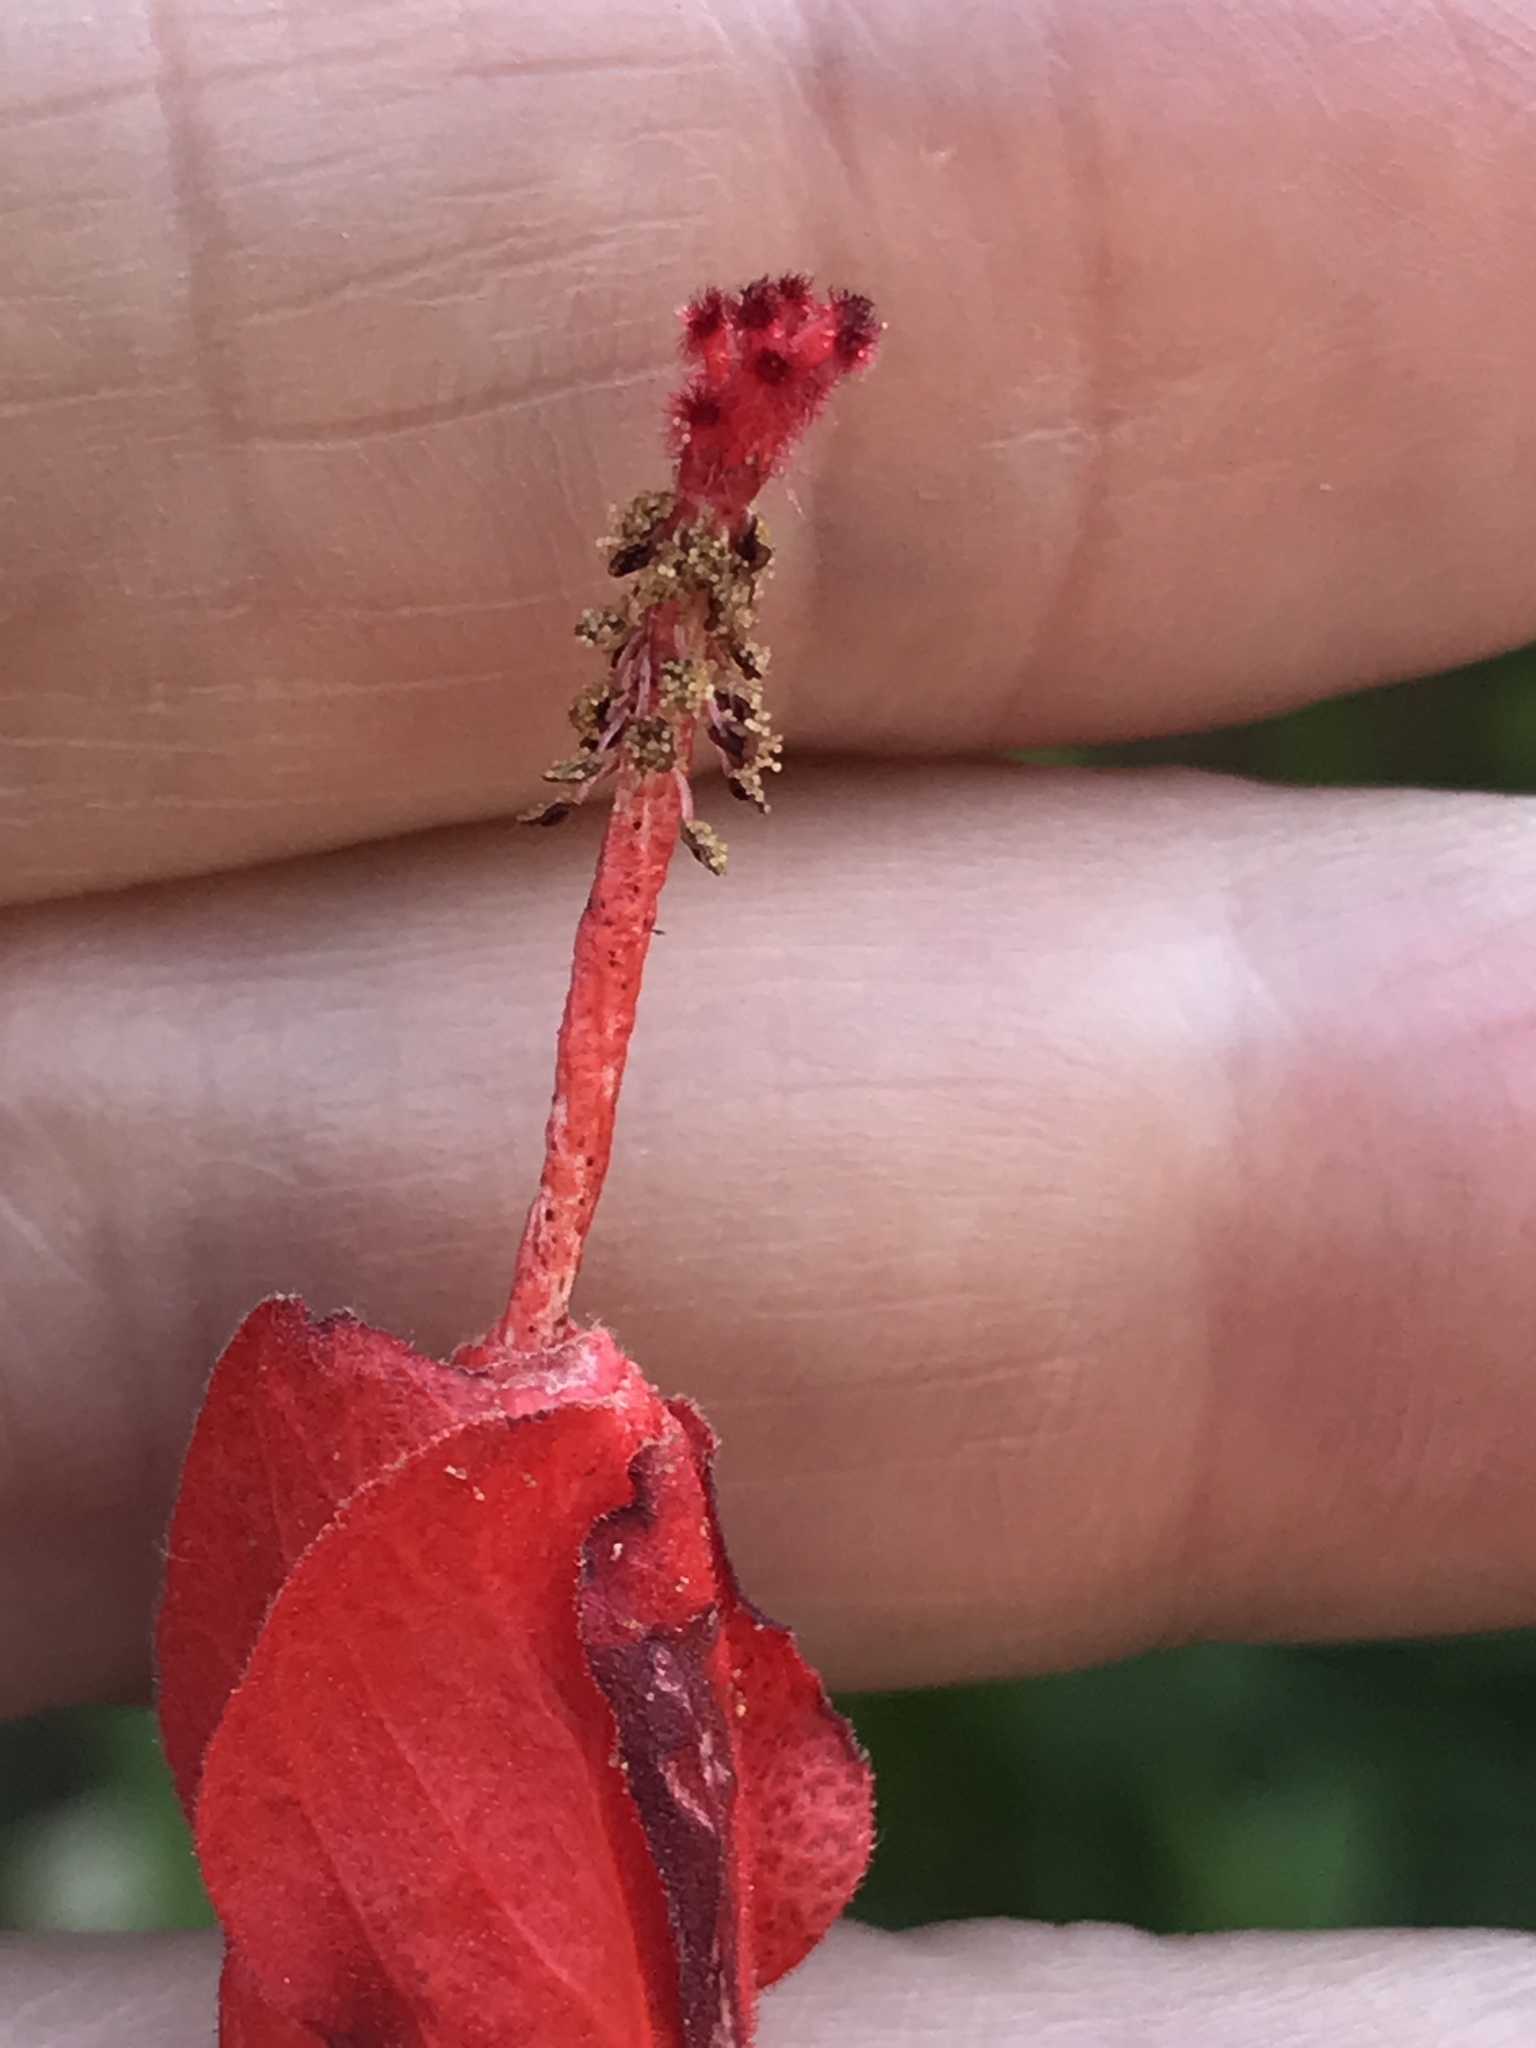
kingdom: Plantae
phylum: Tracheophyta
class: Magnoliopsida
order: Malvales
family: Malvaceae
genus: Malvaviscus
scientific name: Malvaviscus arboreus
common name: Wax mallow
